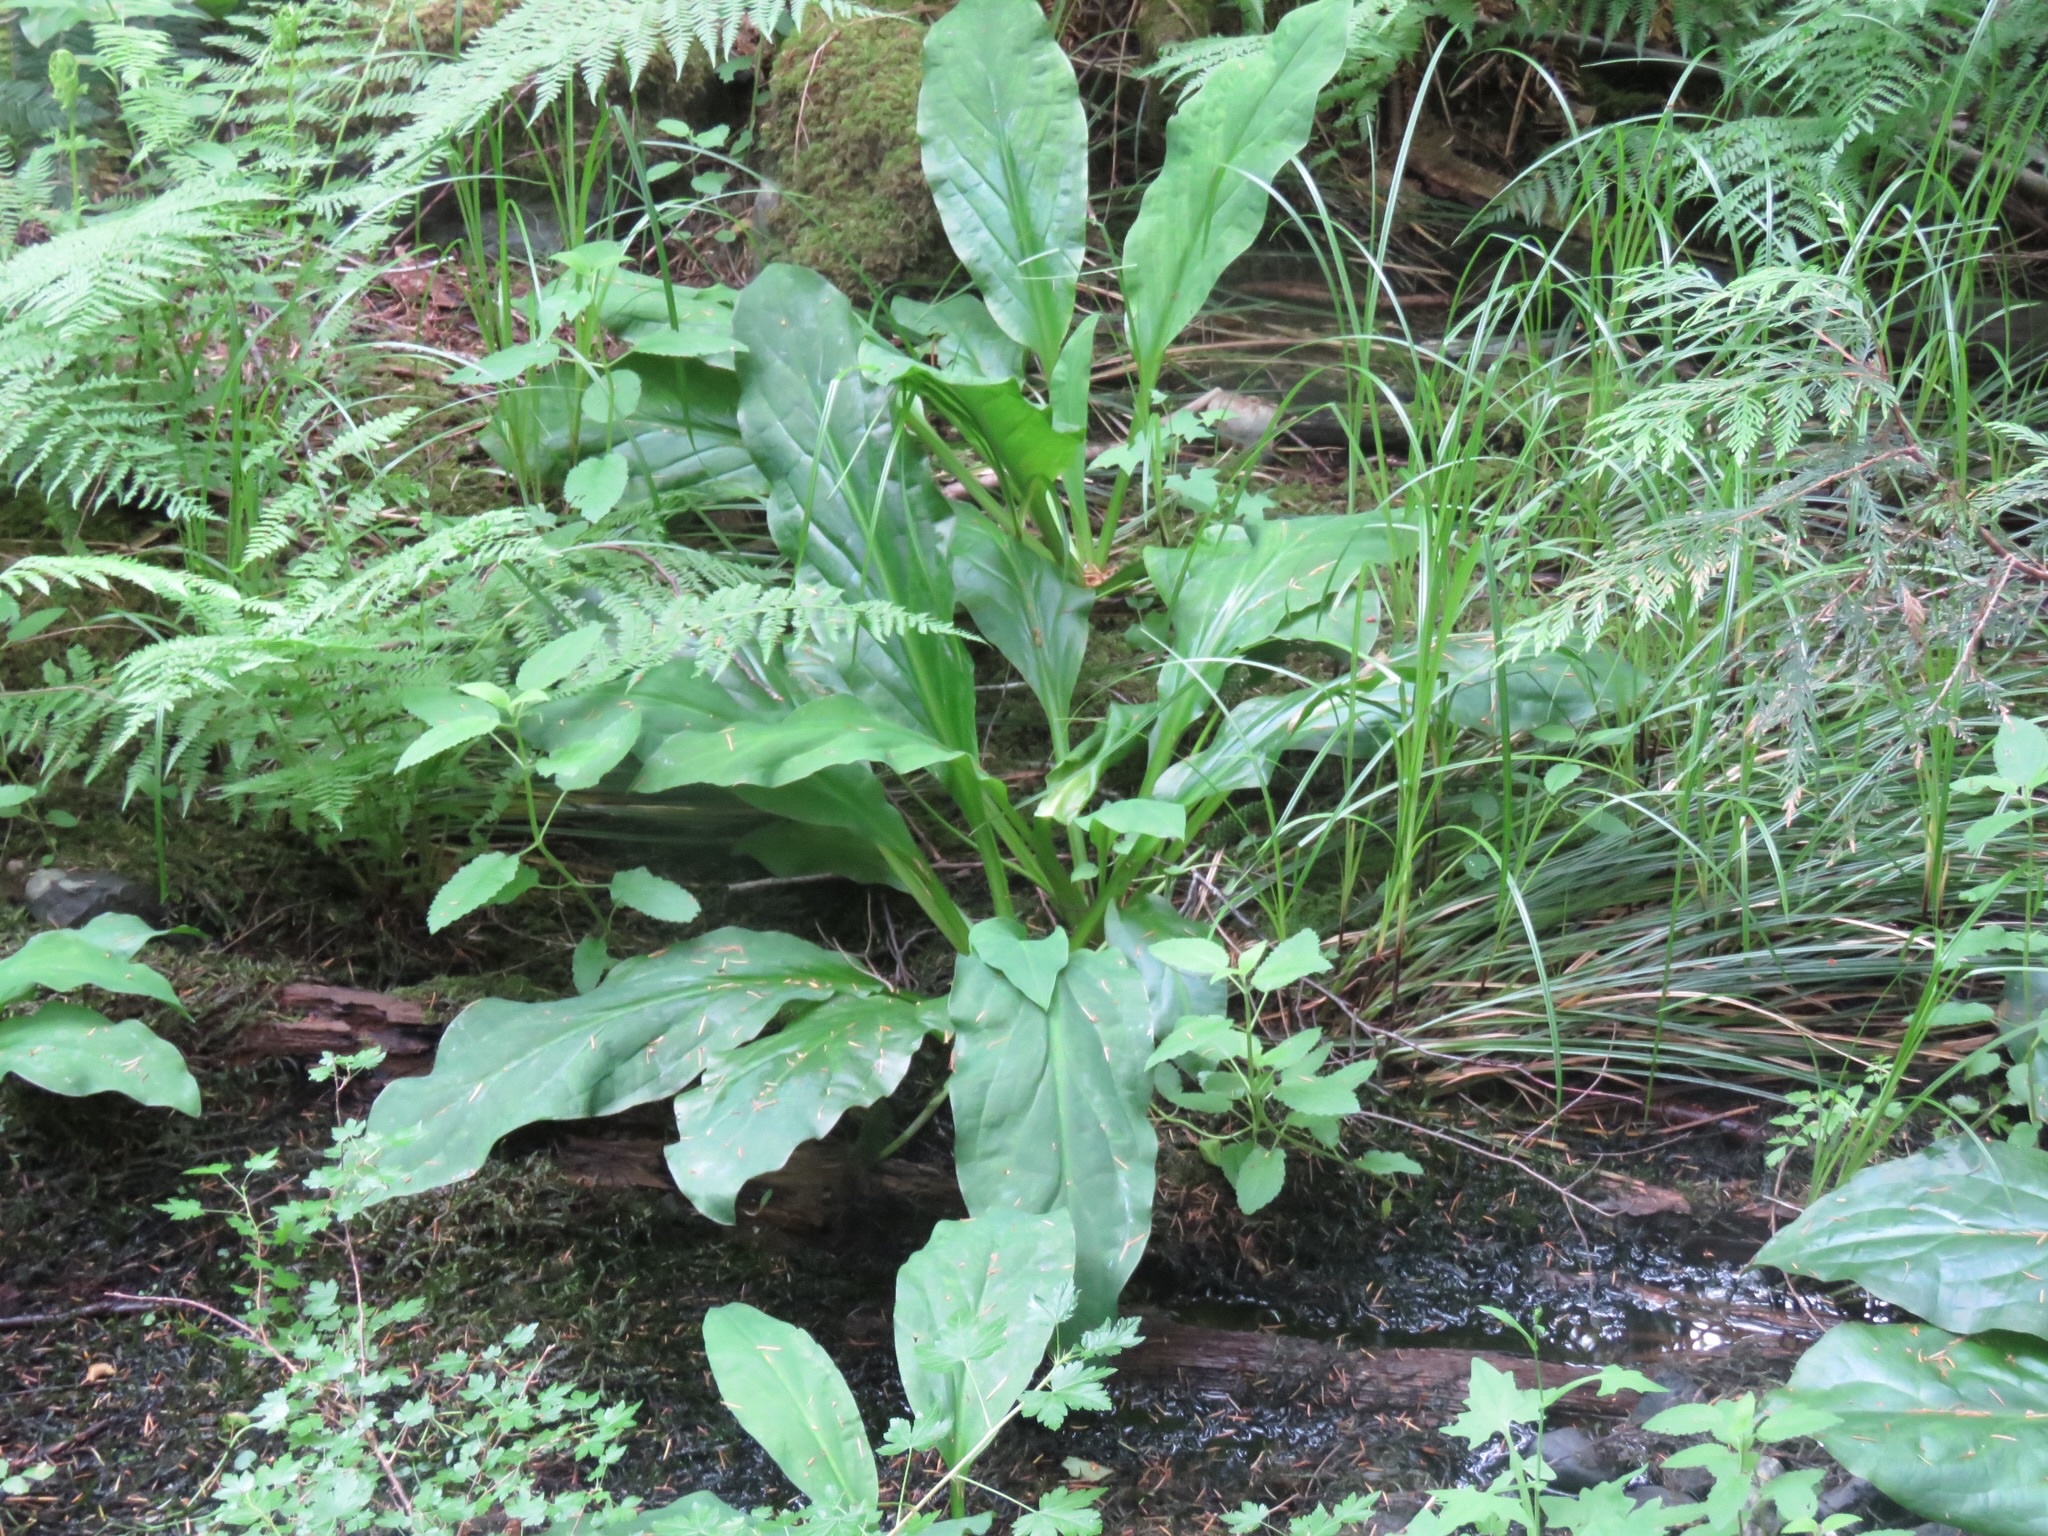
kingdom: Plantae
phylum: Tracheophyta
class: Liliopsida
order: Alismatales
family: Araceae
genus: Lysichiton
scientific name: Lysichiton americanus
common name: American skunk cabbage
